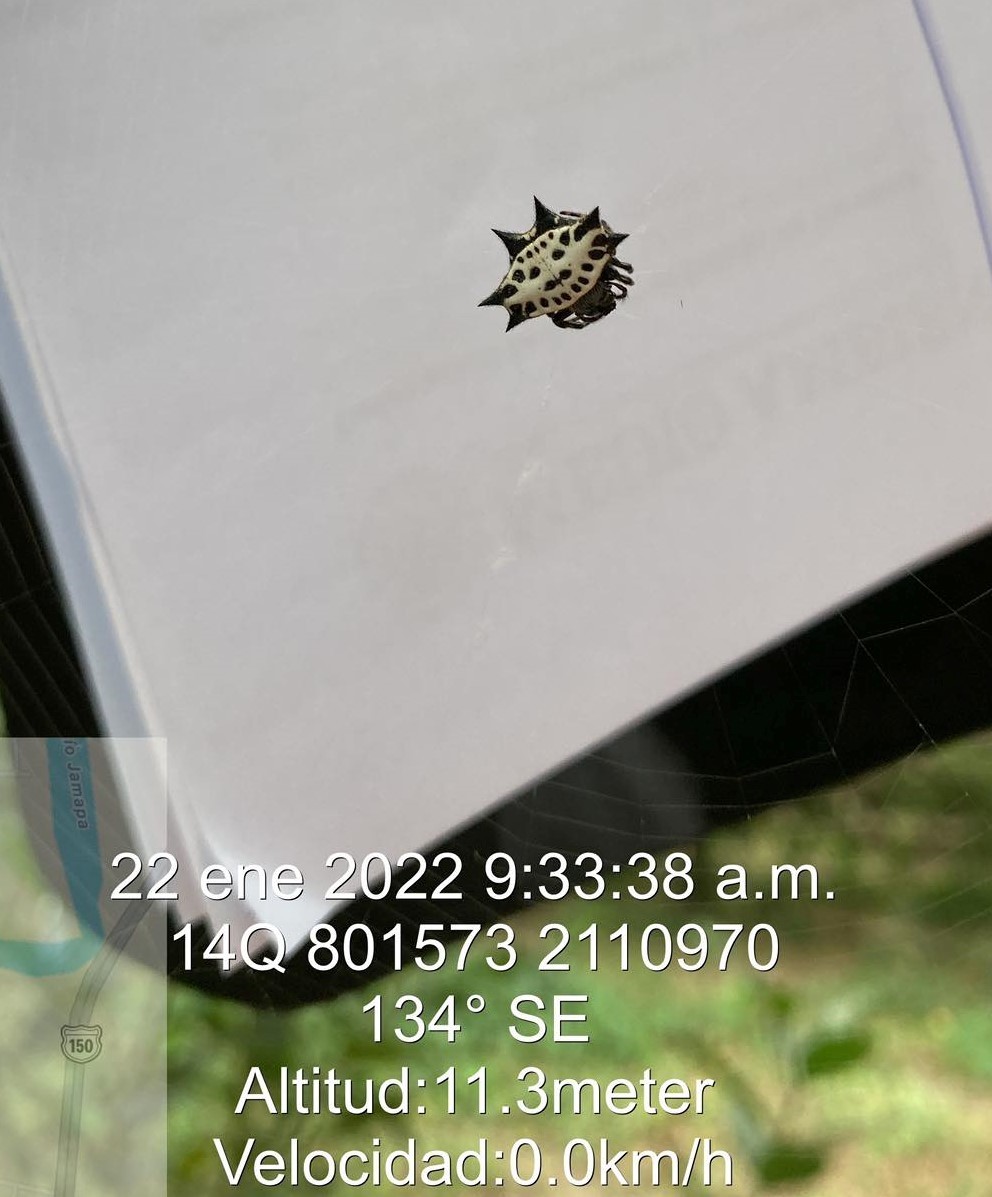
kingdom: Animalia
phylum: Arthropoda
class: Arachnida
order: Araneae
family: Araneidae
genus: Gasteracantha
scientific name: Gasteracantha cancriformis
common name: Orb weavers
